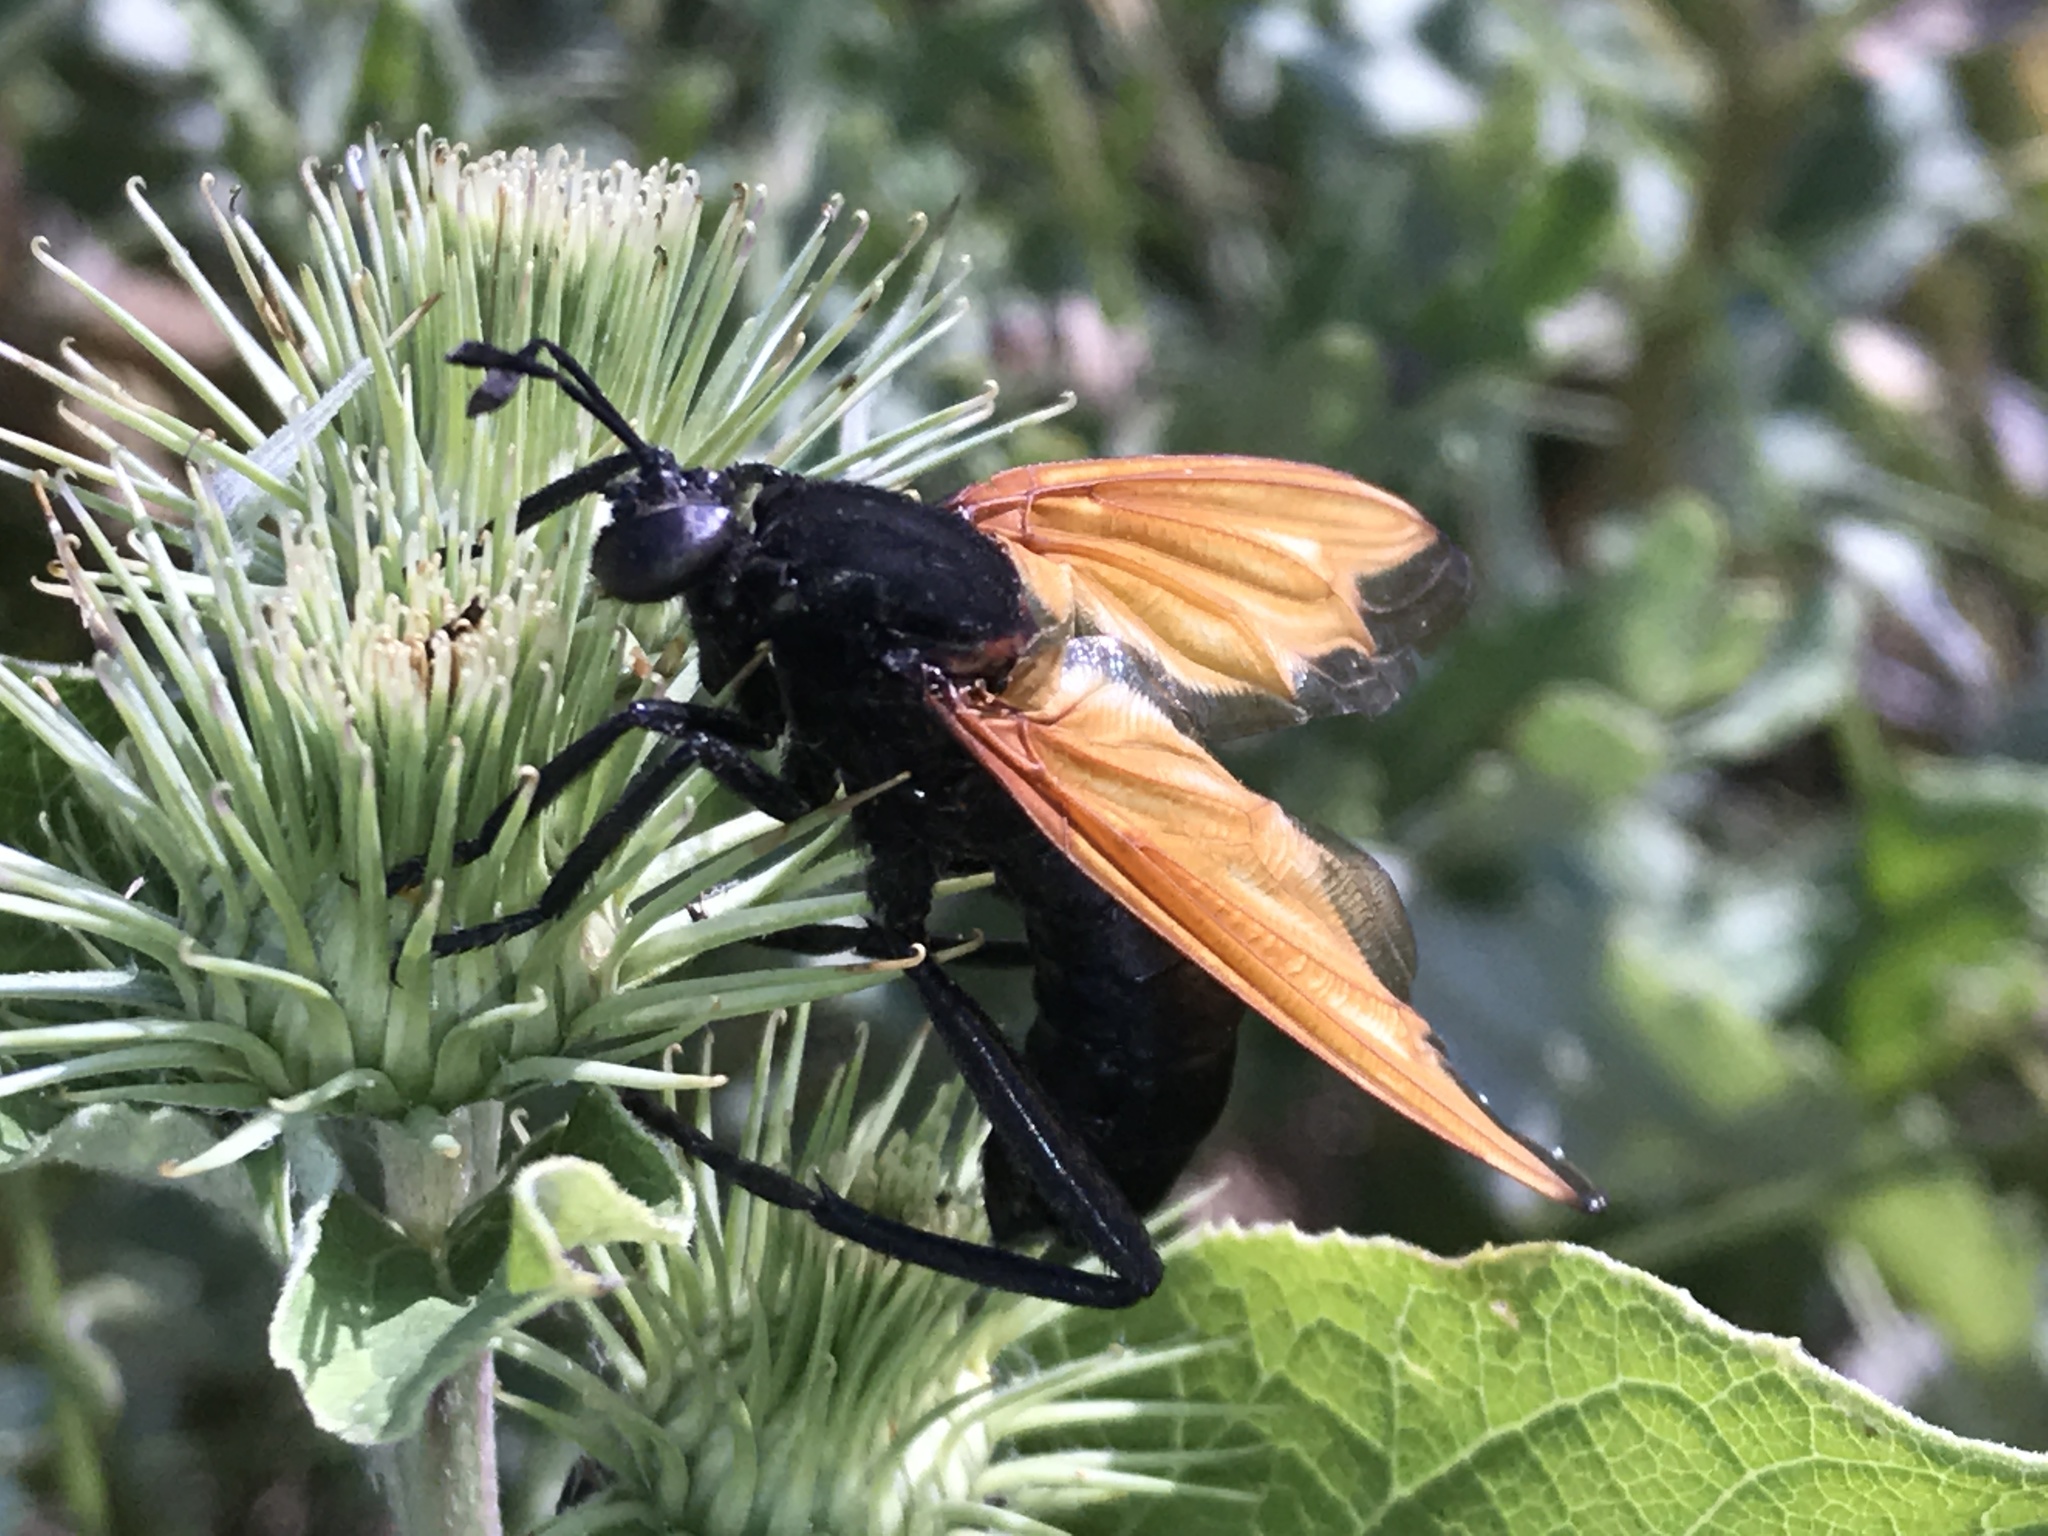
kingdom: Animalia
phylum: Arthropoda
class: Insecta
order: Diptera
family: Mydidae
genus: Mydas
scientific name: Mydas xanthopterus
